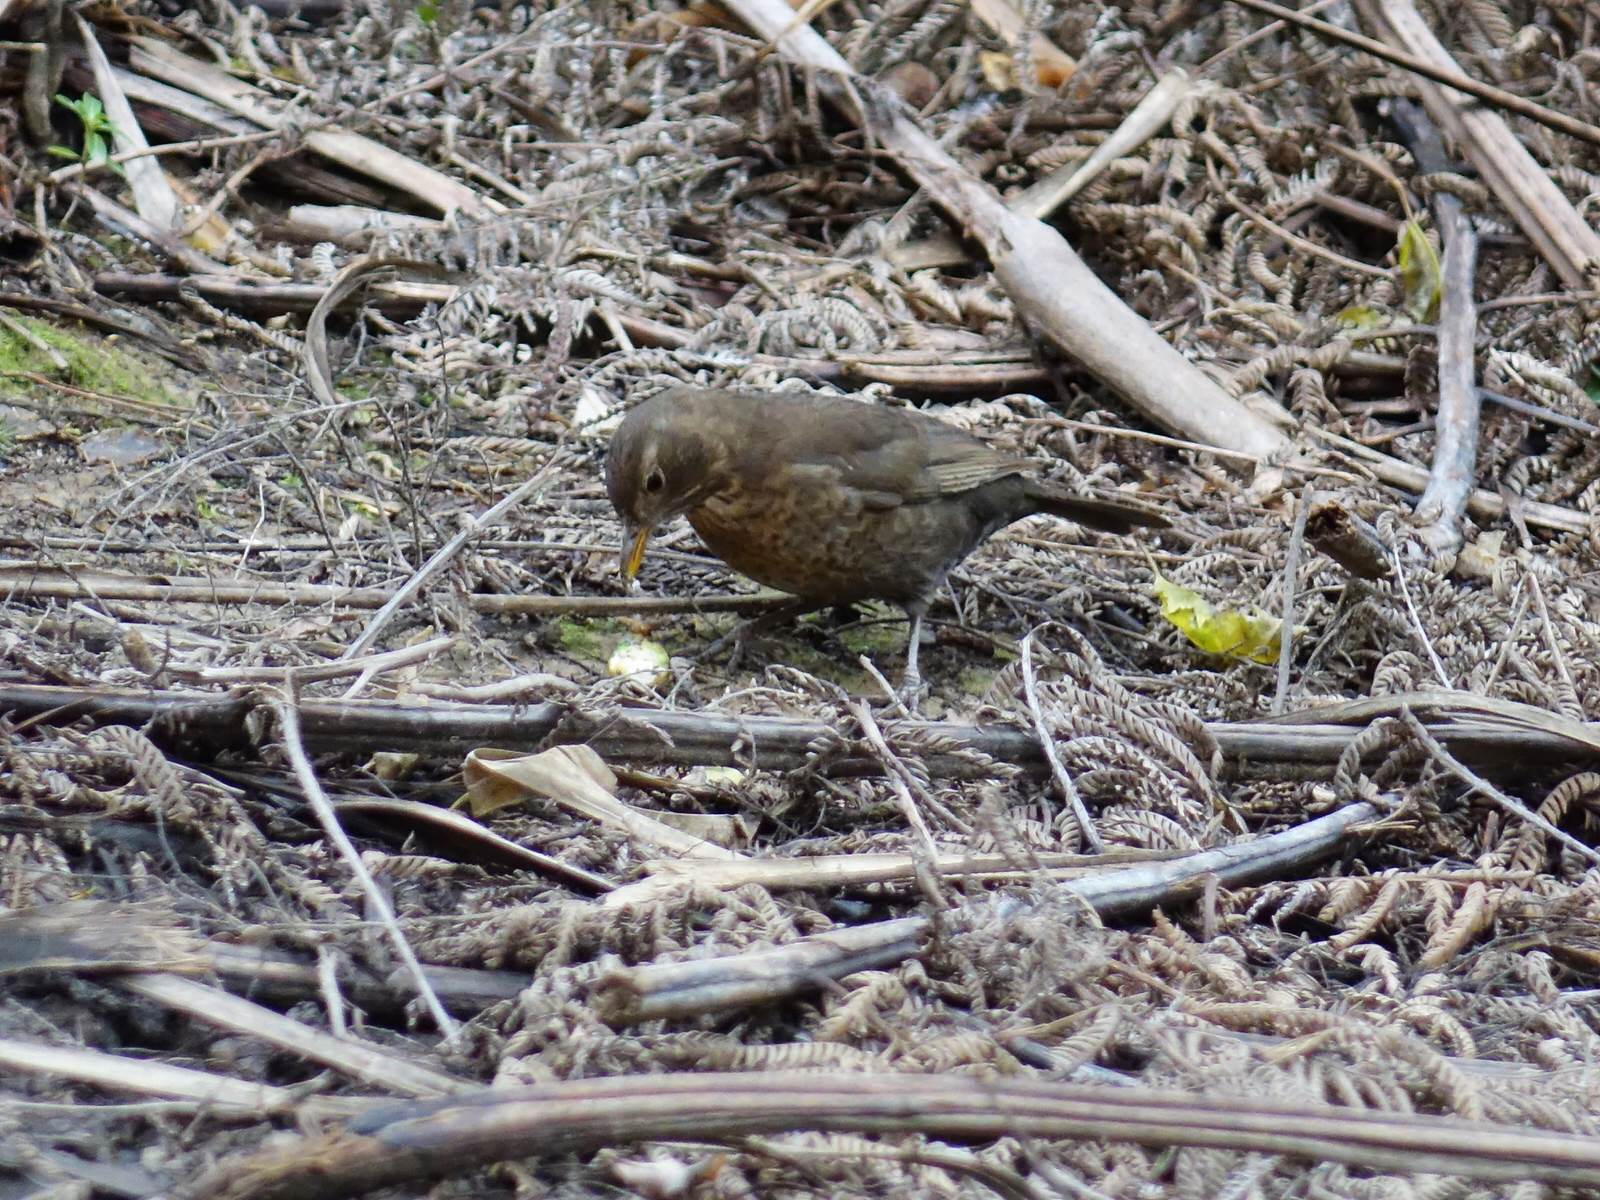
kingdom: Animalia
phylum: Chordata
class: Aves
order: Passeriformes
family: Turdidae
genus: Turdus
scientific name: Turdus merula
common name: Common blackbird
